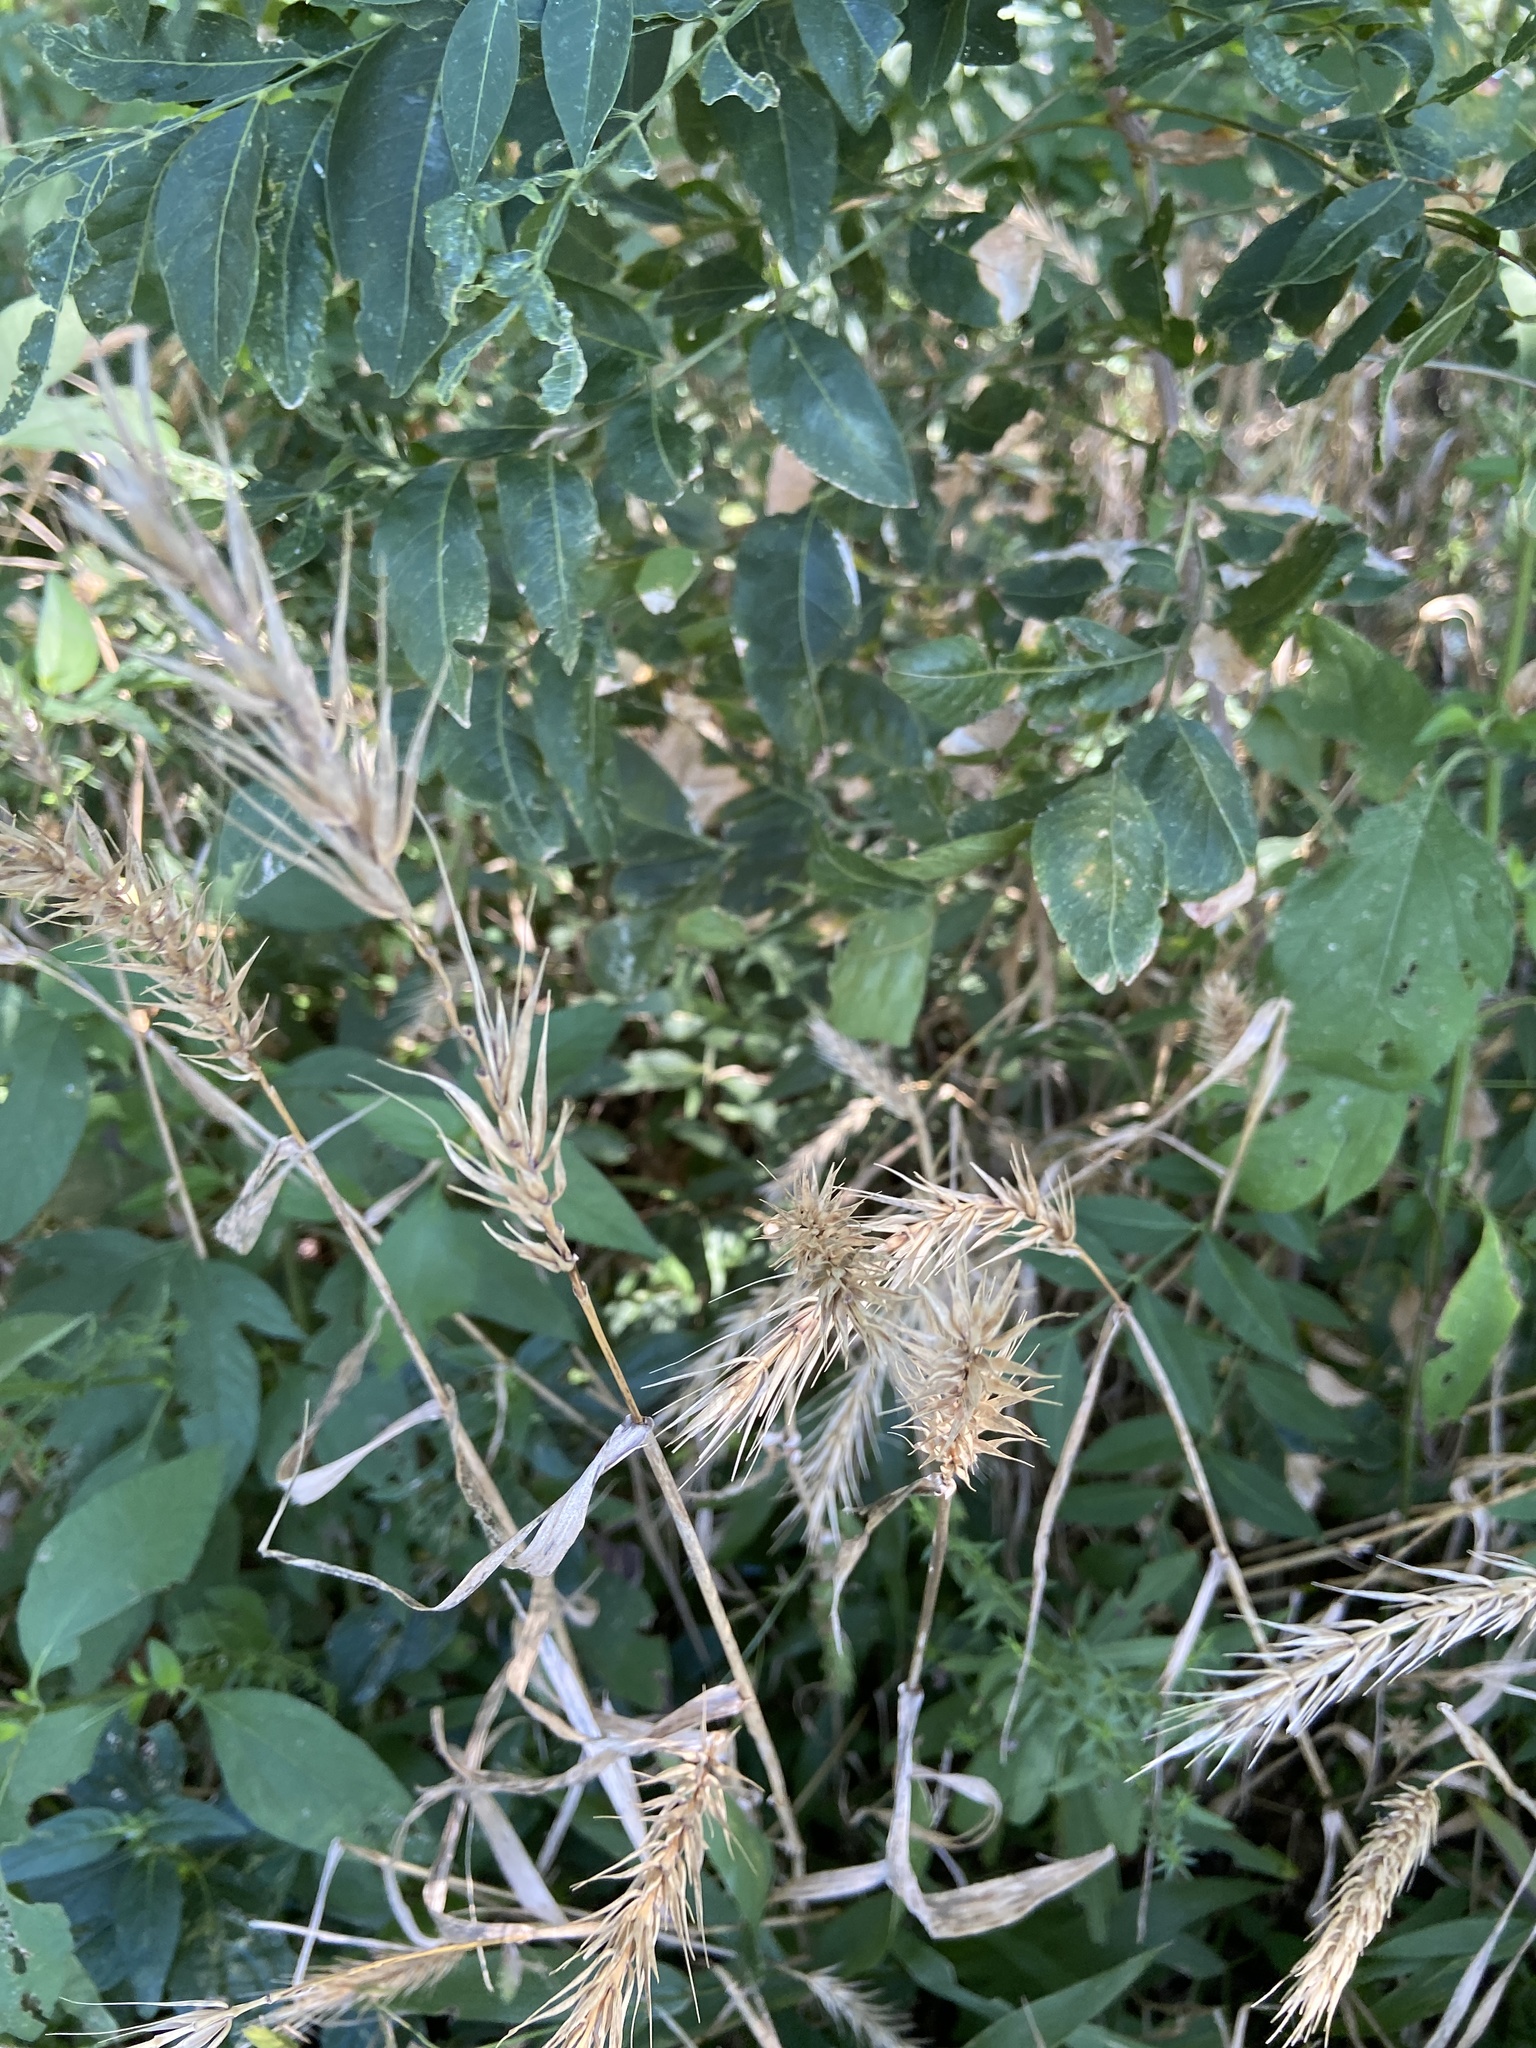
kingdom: Plantae
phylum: Tracheophyta
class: Liliopsida
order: Poales
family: Poaceae
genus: Elymus
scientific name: Elymus virginicus
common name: Common eastern wildrye
